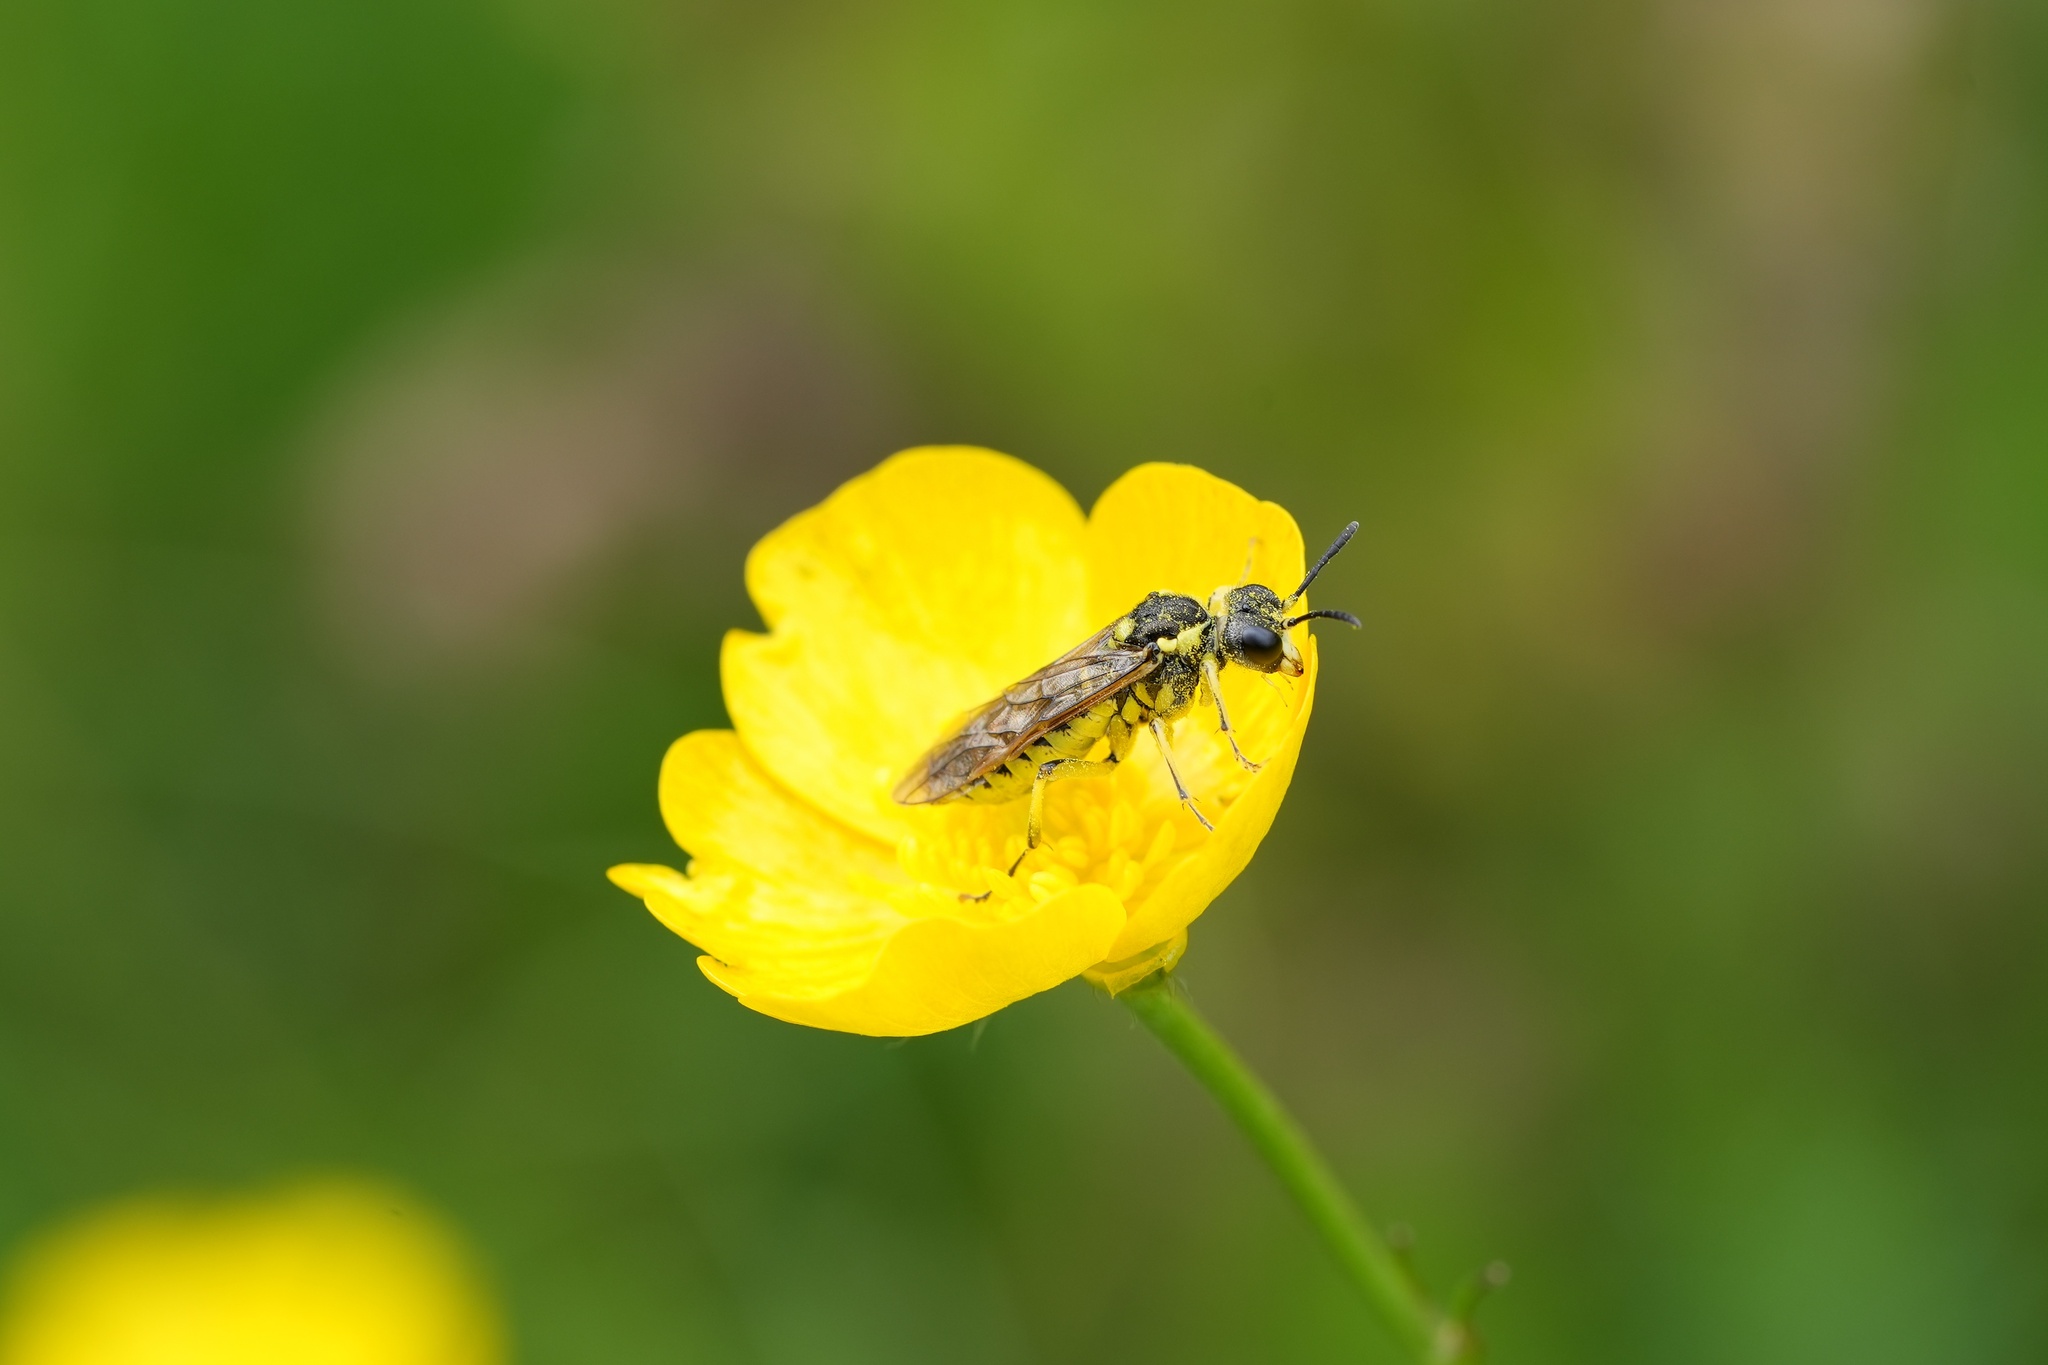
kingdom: Animalia
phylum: Arthropoda
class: Insecta
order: Hymenoptera
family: Tenthredinidae
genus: Tenthredo
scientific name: Tenthredo notha
